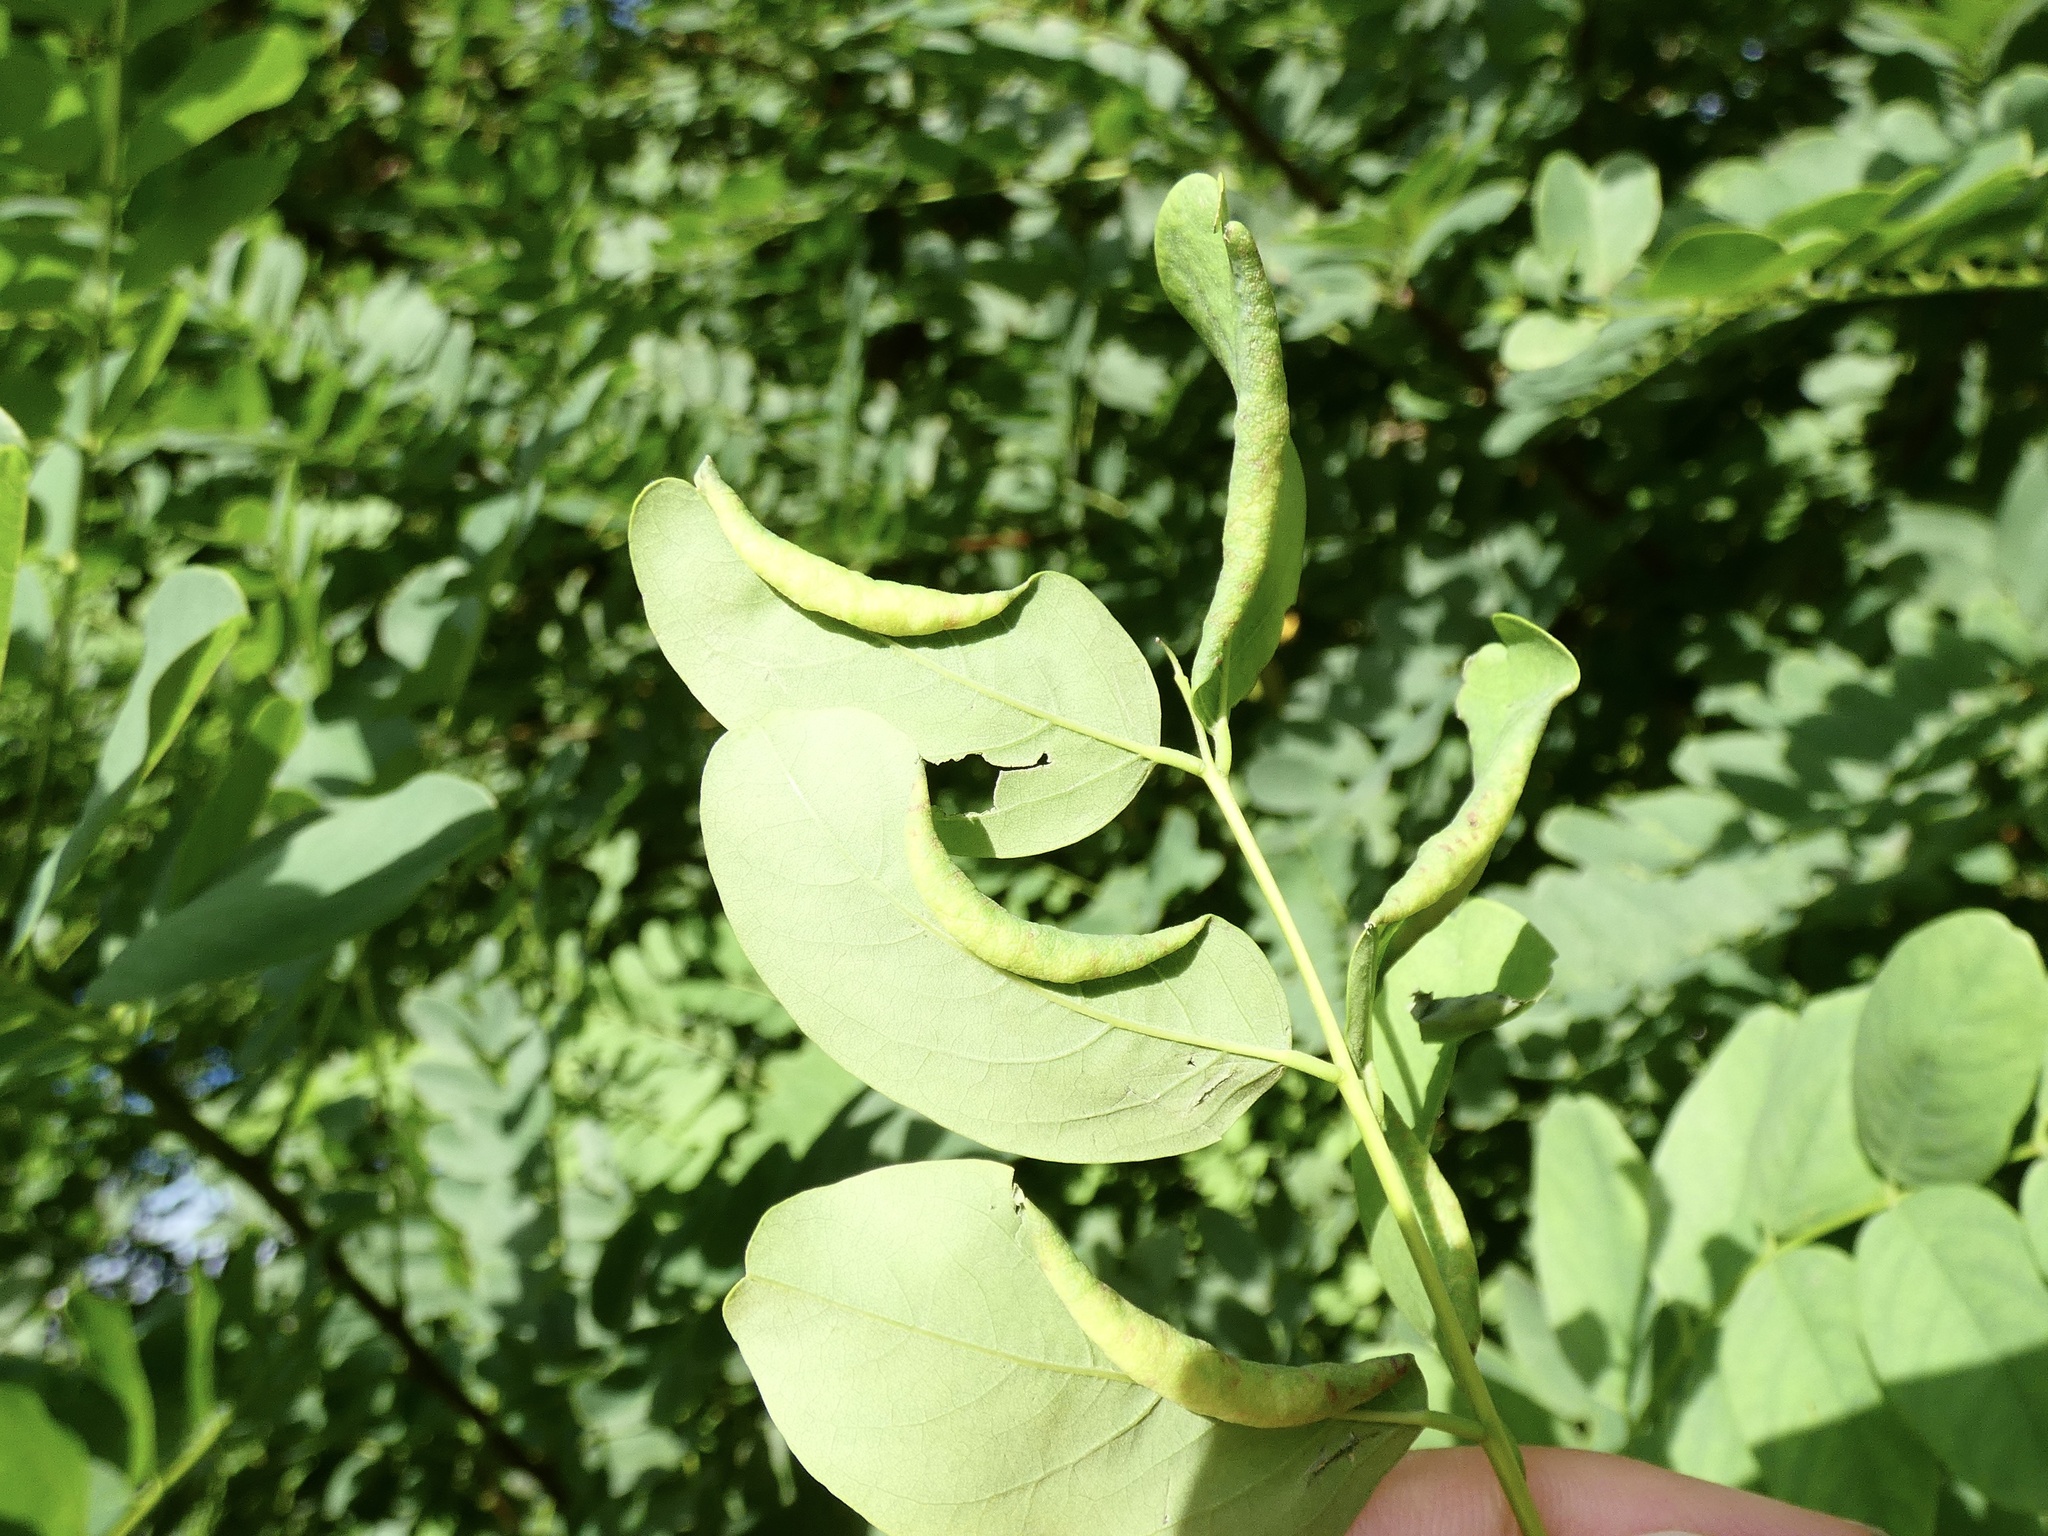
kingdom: Animalia
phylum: Arthropoda
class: Insecta
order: Diptera
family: Cecidomyiidae
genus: Obolodiplosis
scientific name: Obolodiplosis robiniae
